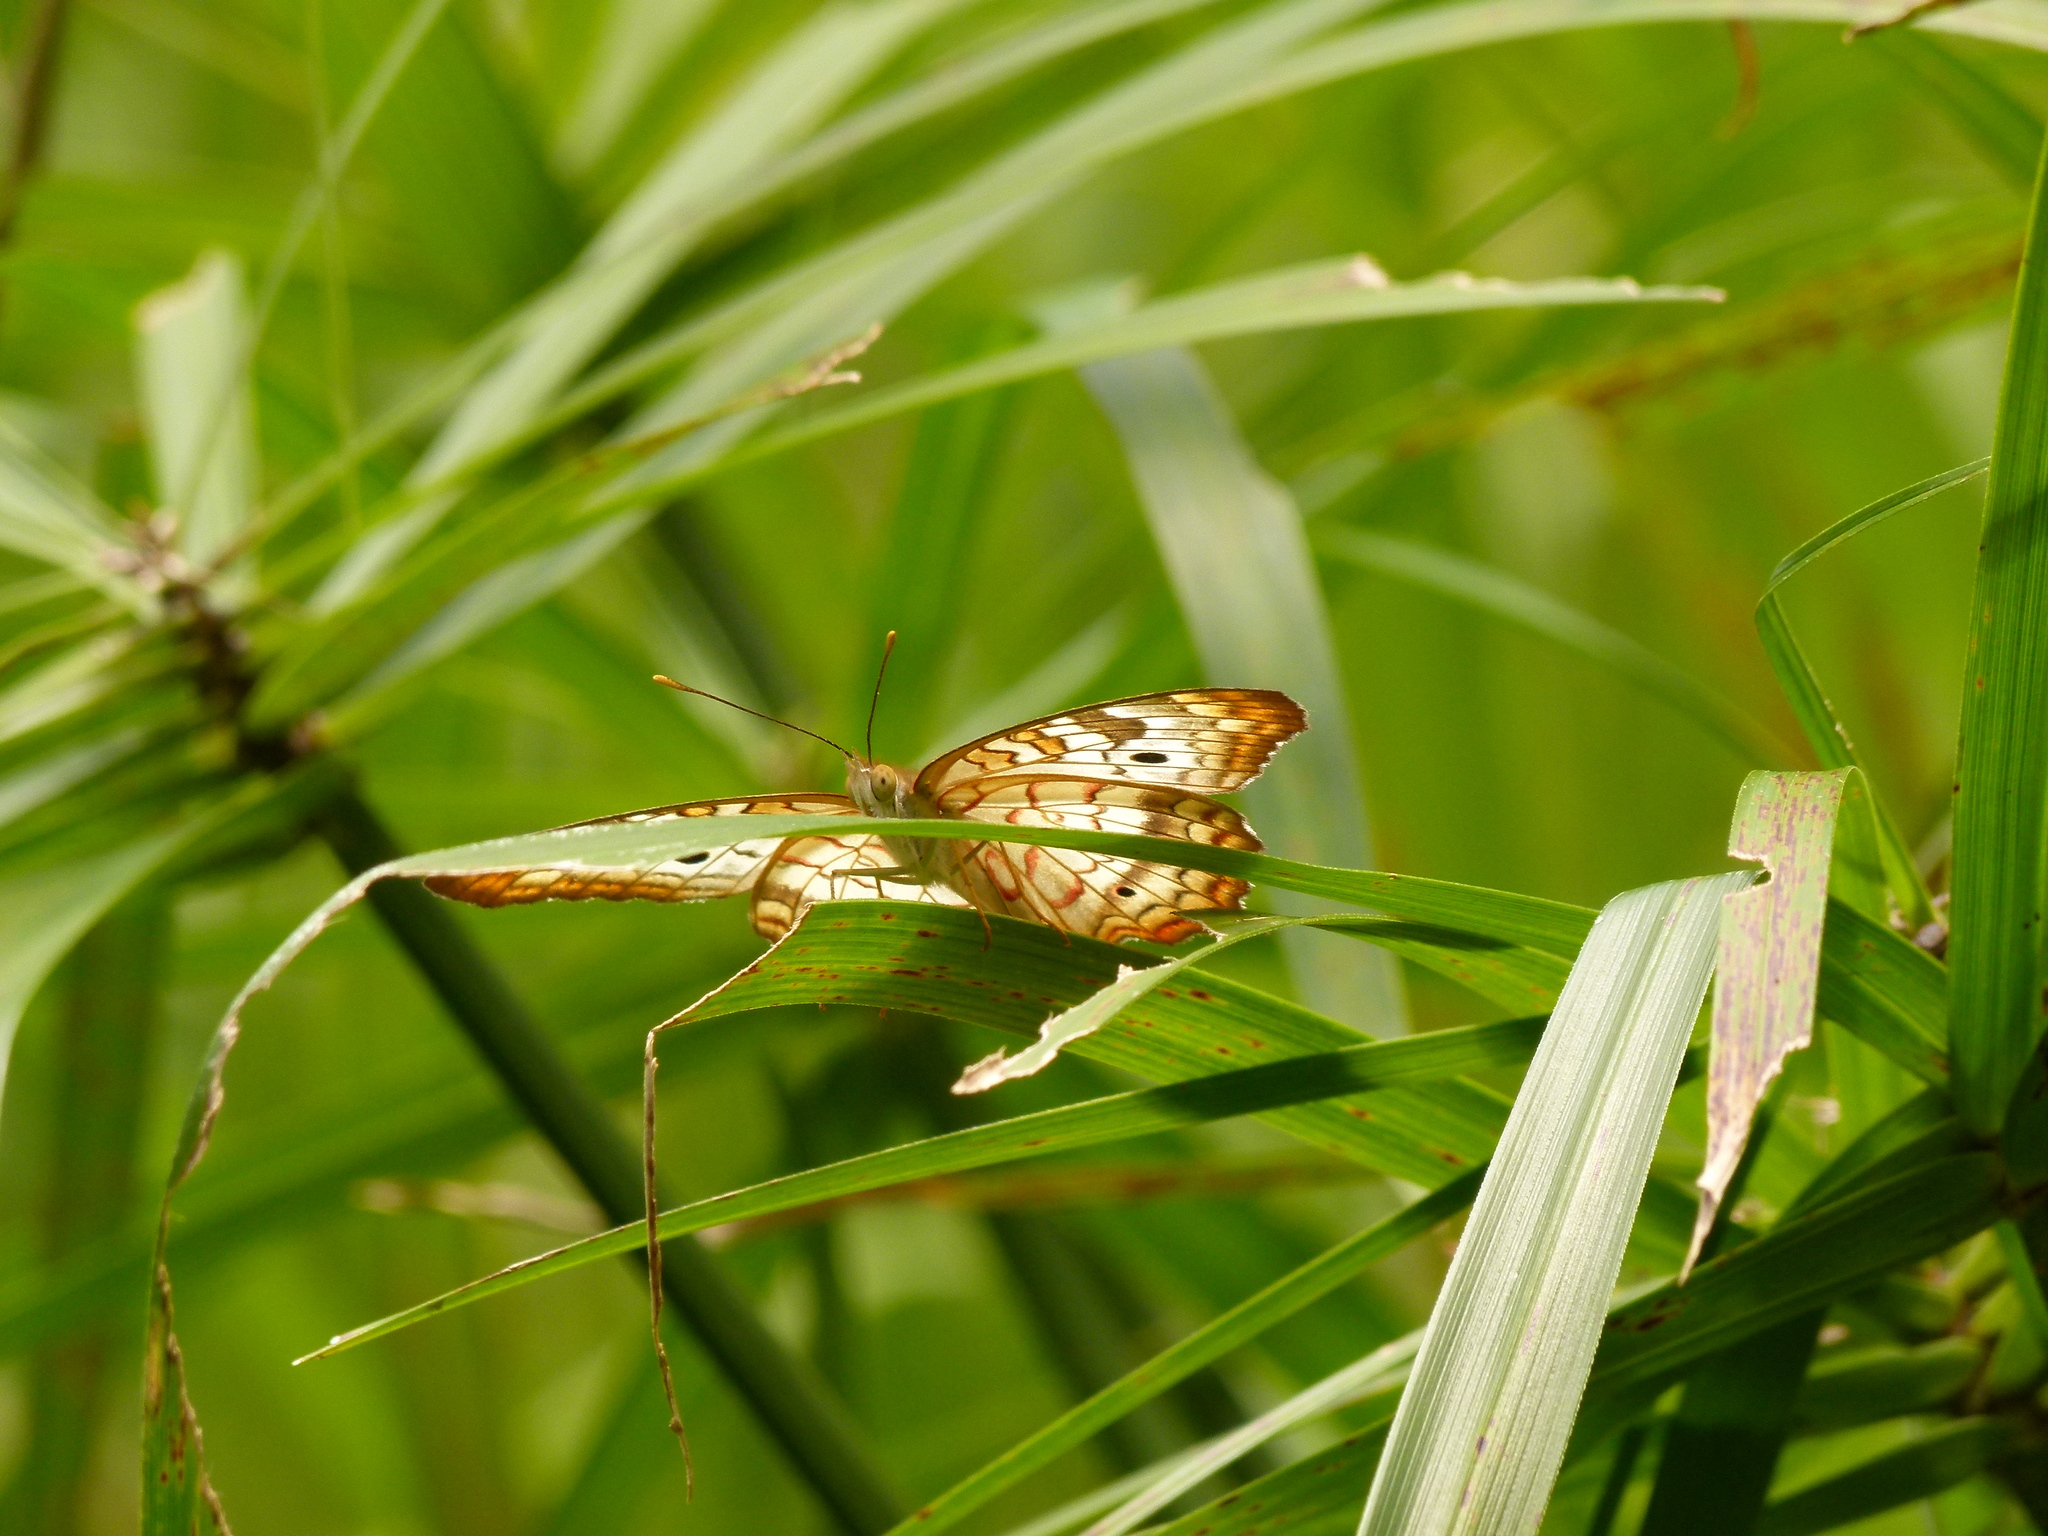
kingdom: Animalia
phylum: Arthropoda
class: Insecta
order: Lepidoptera
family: Nymphalidae
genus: Anartia
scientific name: Anartia jatrophae
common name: White peacock
